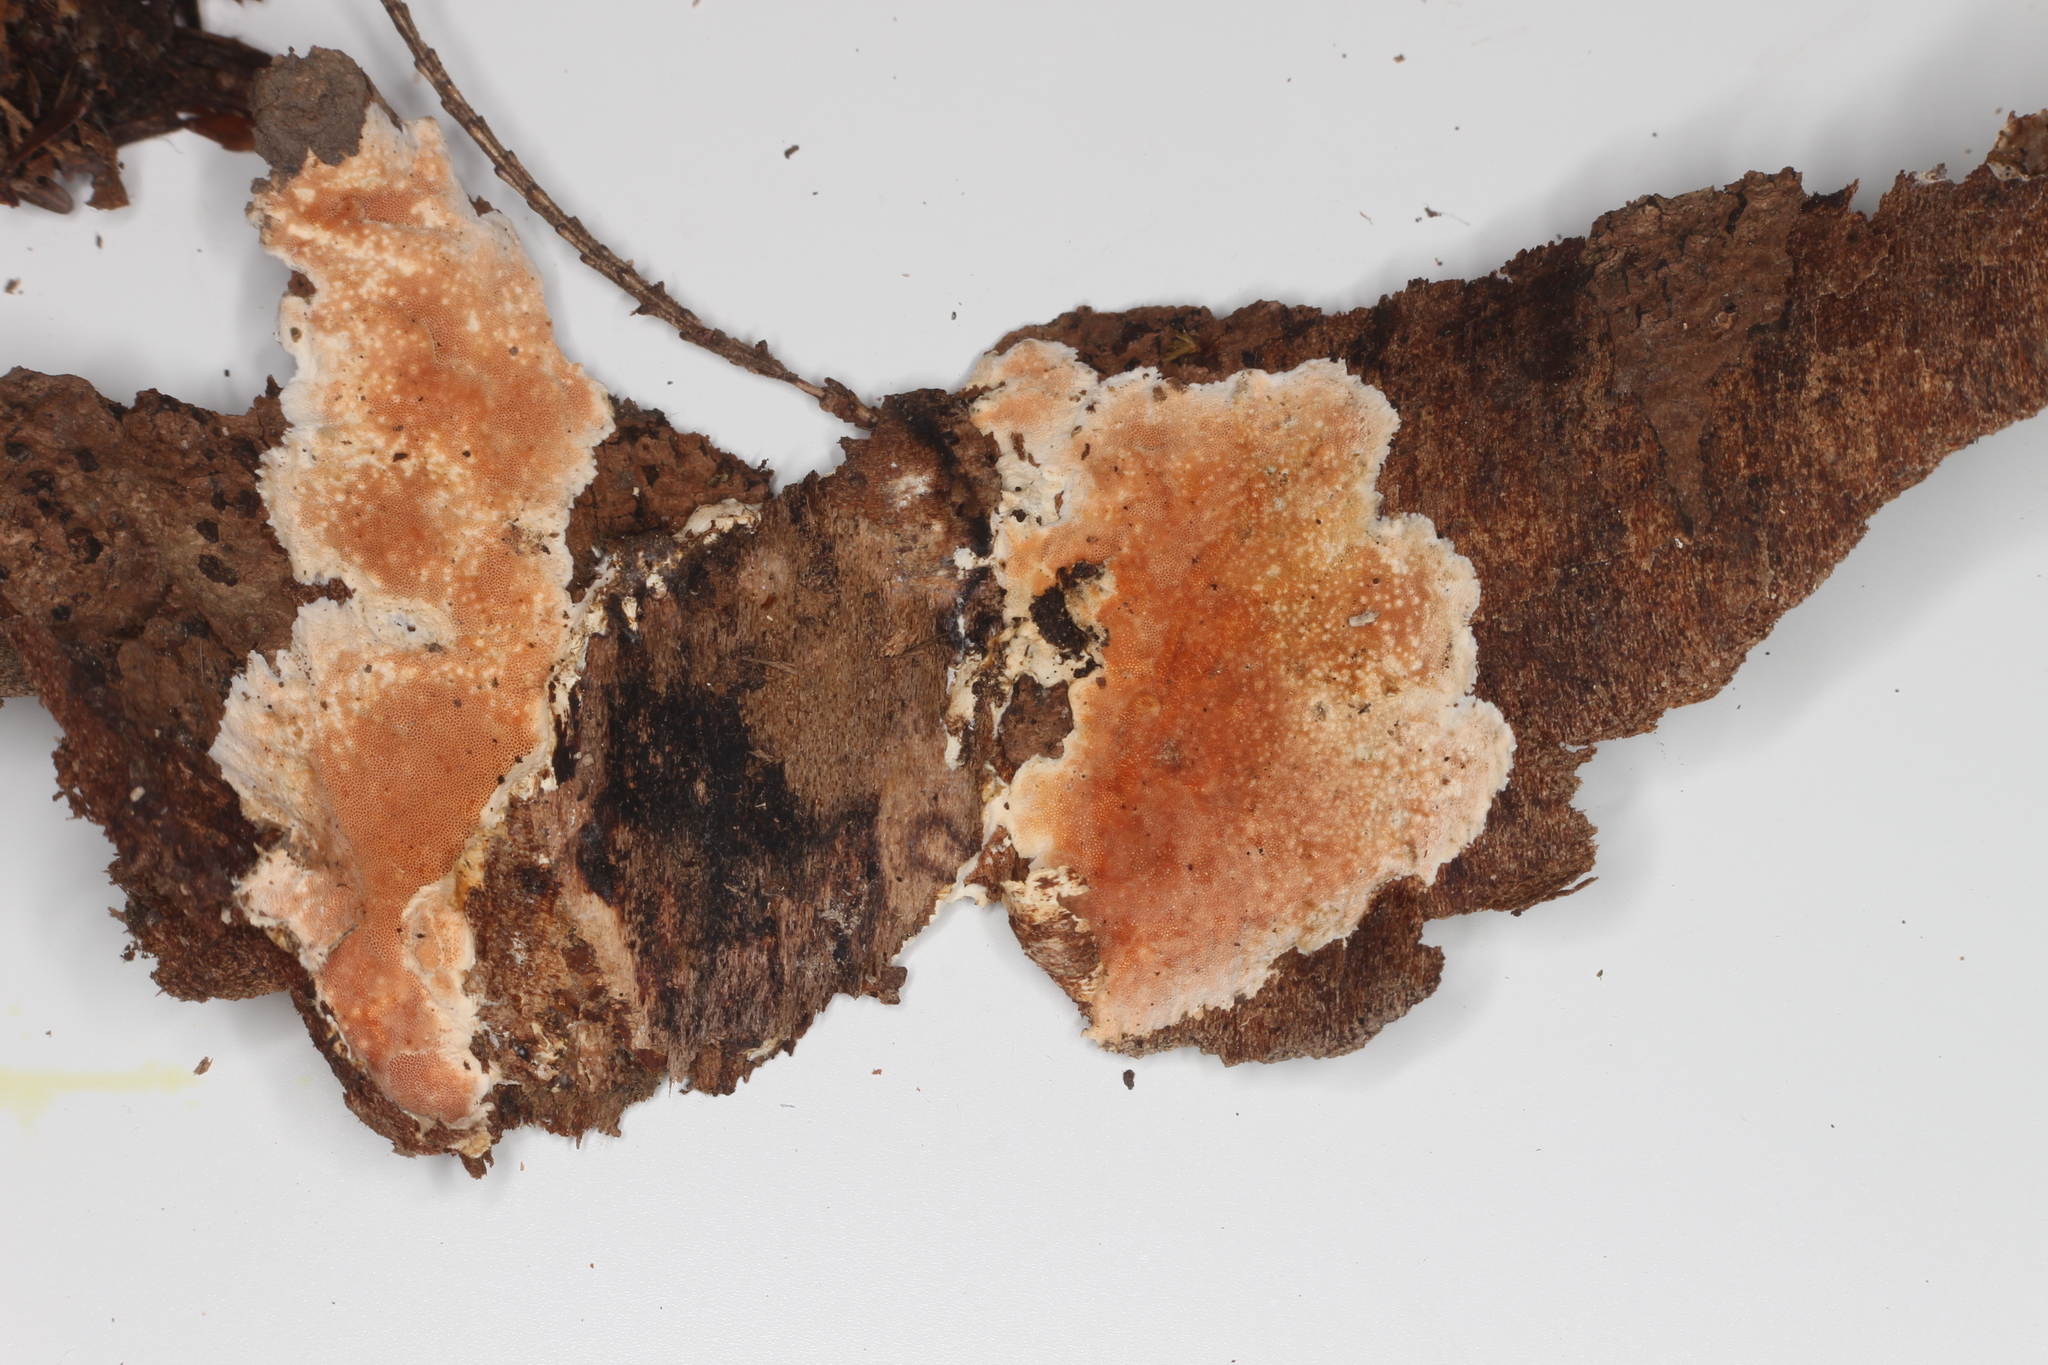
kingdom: Fungi
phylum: Basidiomycota
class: Agaricomycetes
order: Polyporales
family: Steccherinaceae
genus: Junghuhnia
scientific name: Junghuhnia nitida
